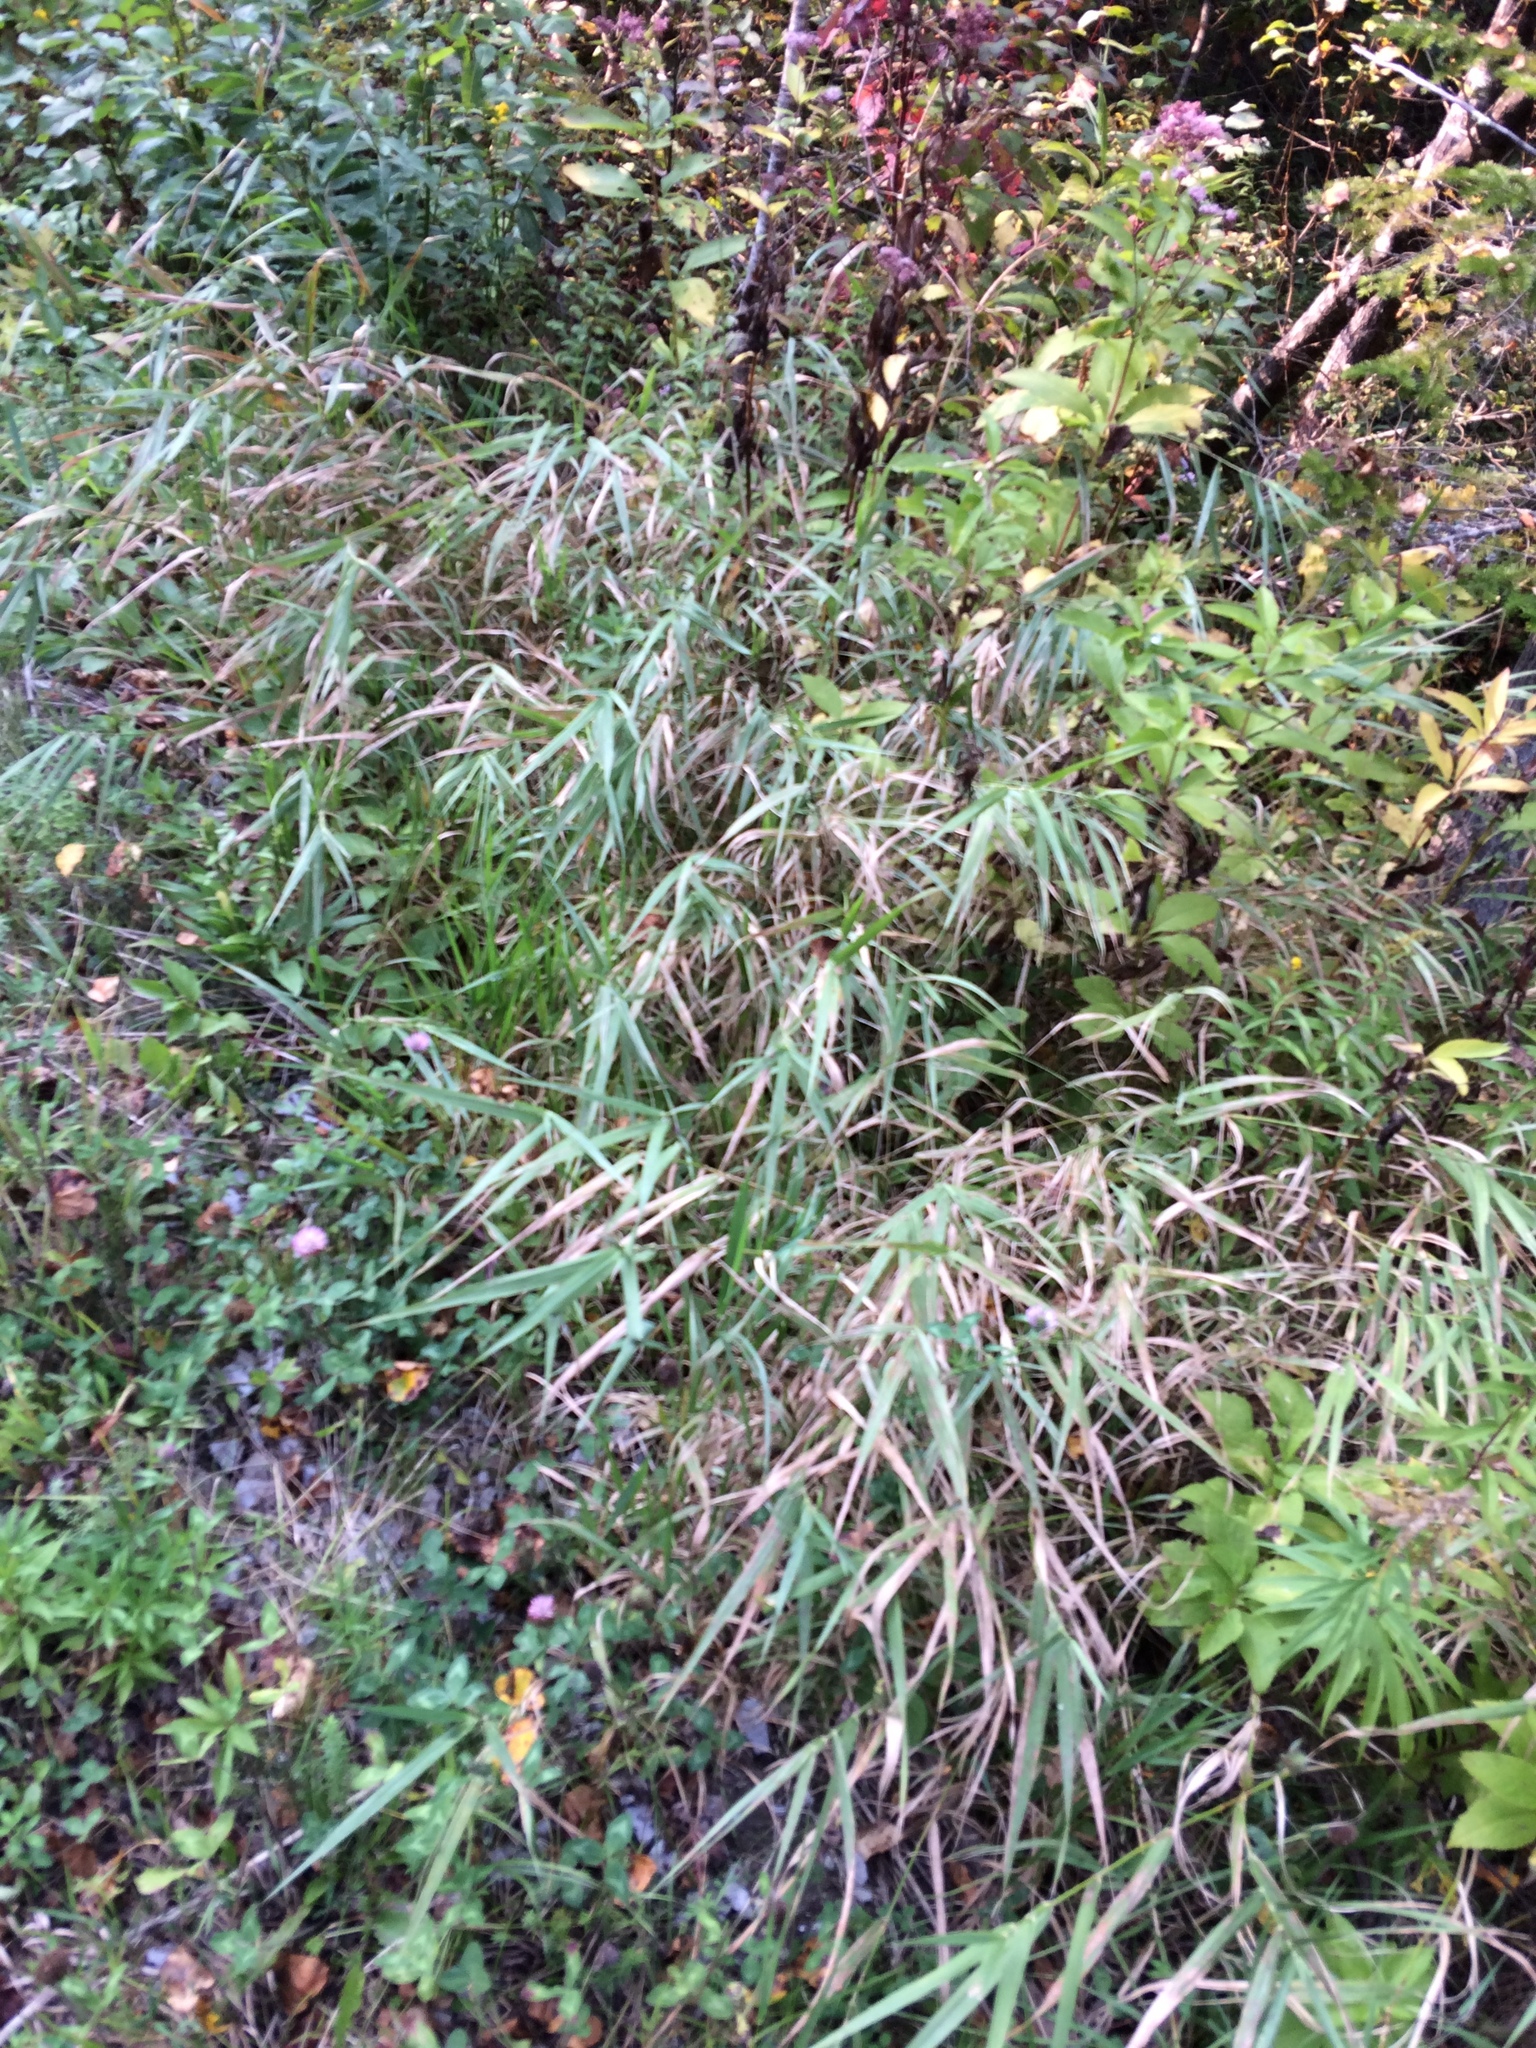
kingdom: Plantae
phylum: Tracheophyta
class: Liliopsida
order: Poales
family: Poaceae
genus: Phalaris
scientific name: Phalaris arundinacea
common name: Reed canary-grass
